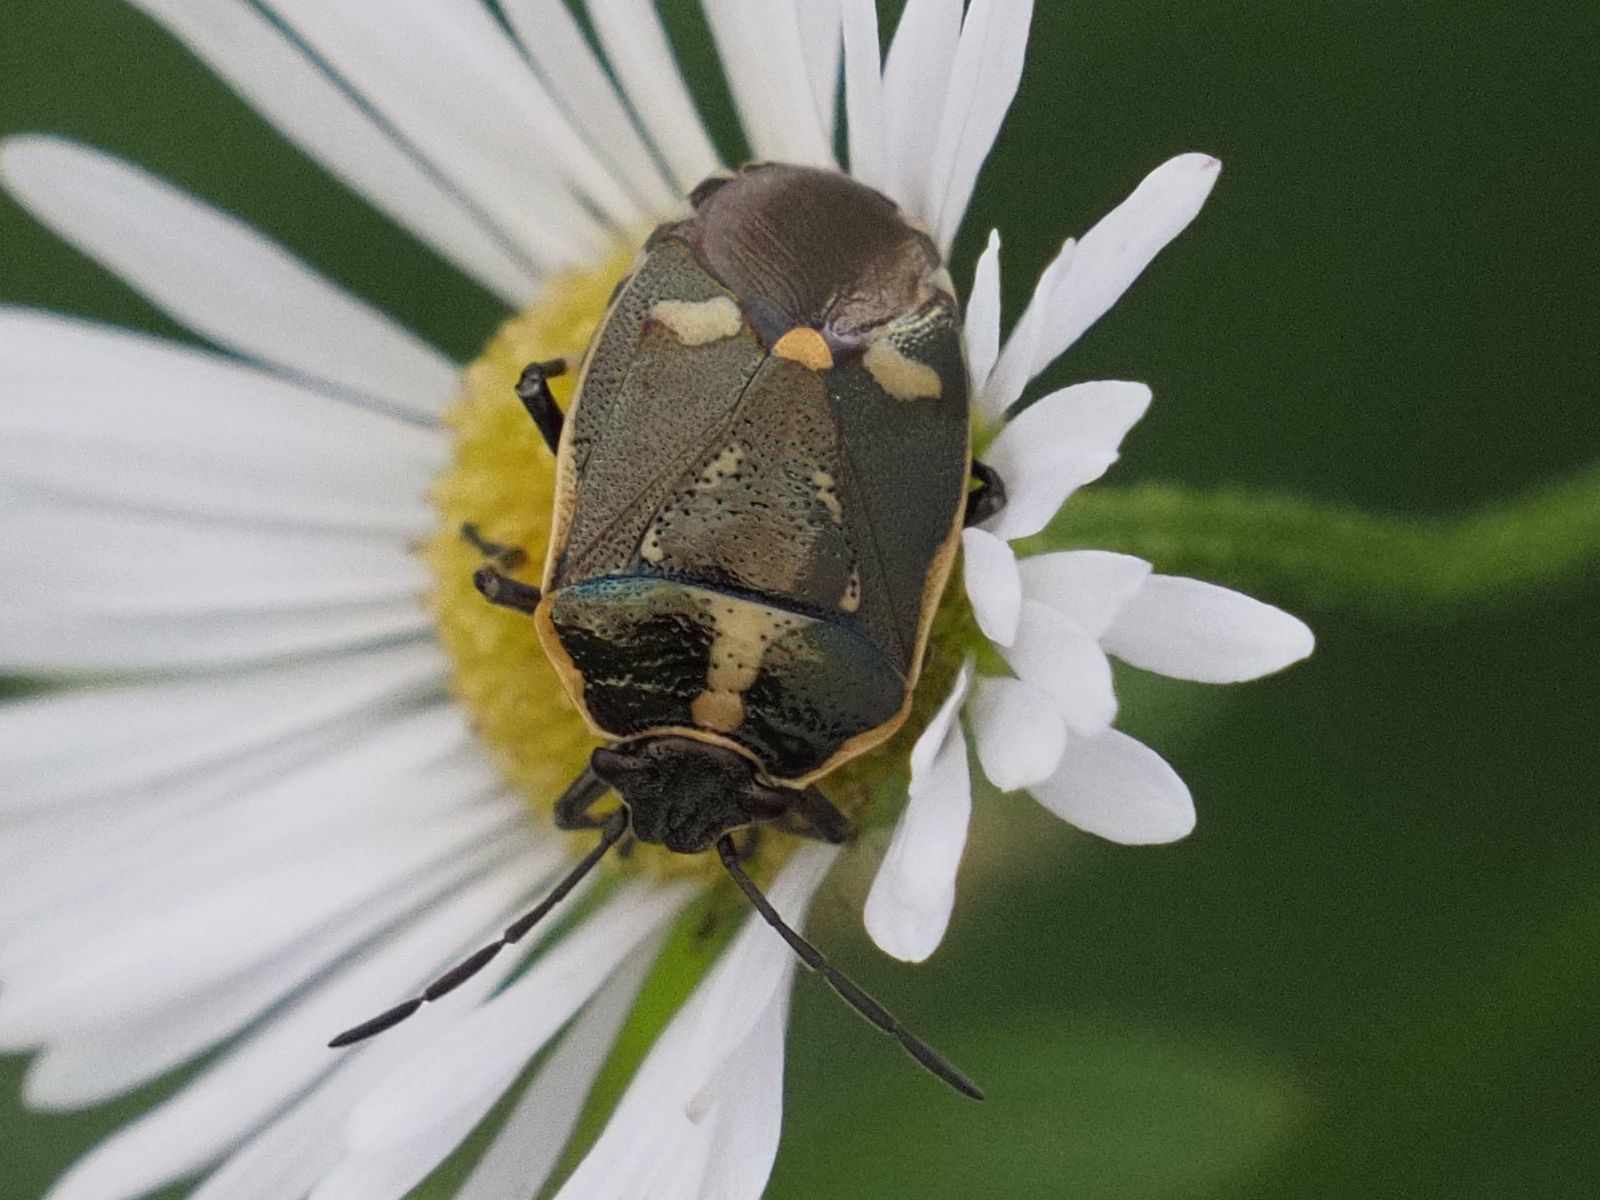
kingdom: Animalia
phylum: Arthropoda
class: Insecta
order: Hemiptera
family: Pentatomidae
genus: Eurydema
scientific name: Eurydema oleracea
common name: Cabbage bug
